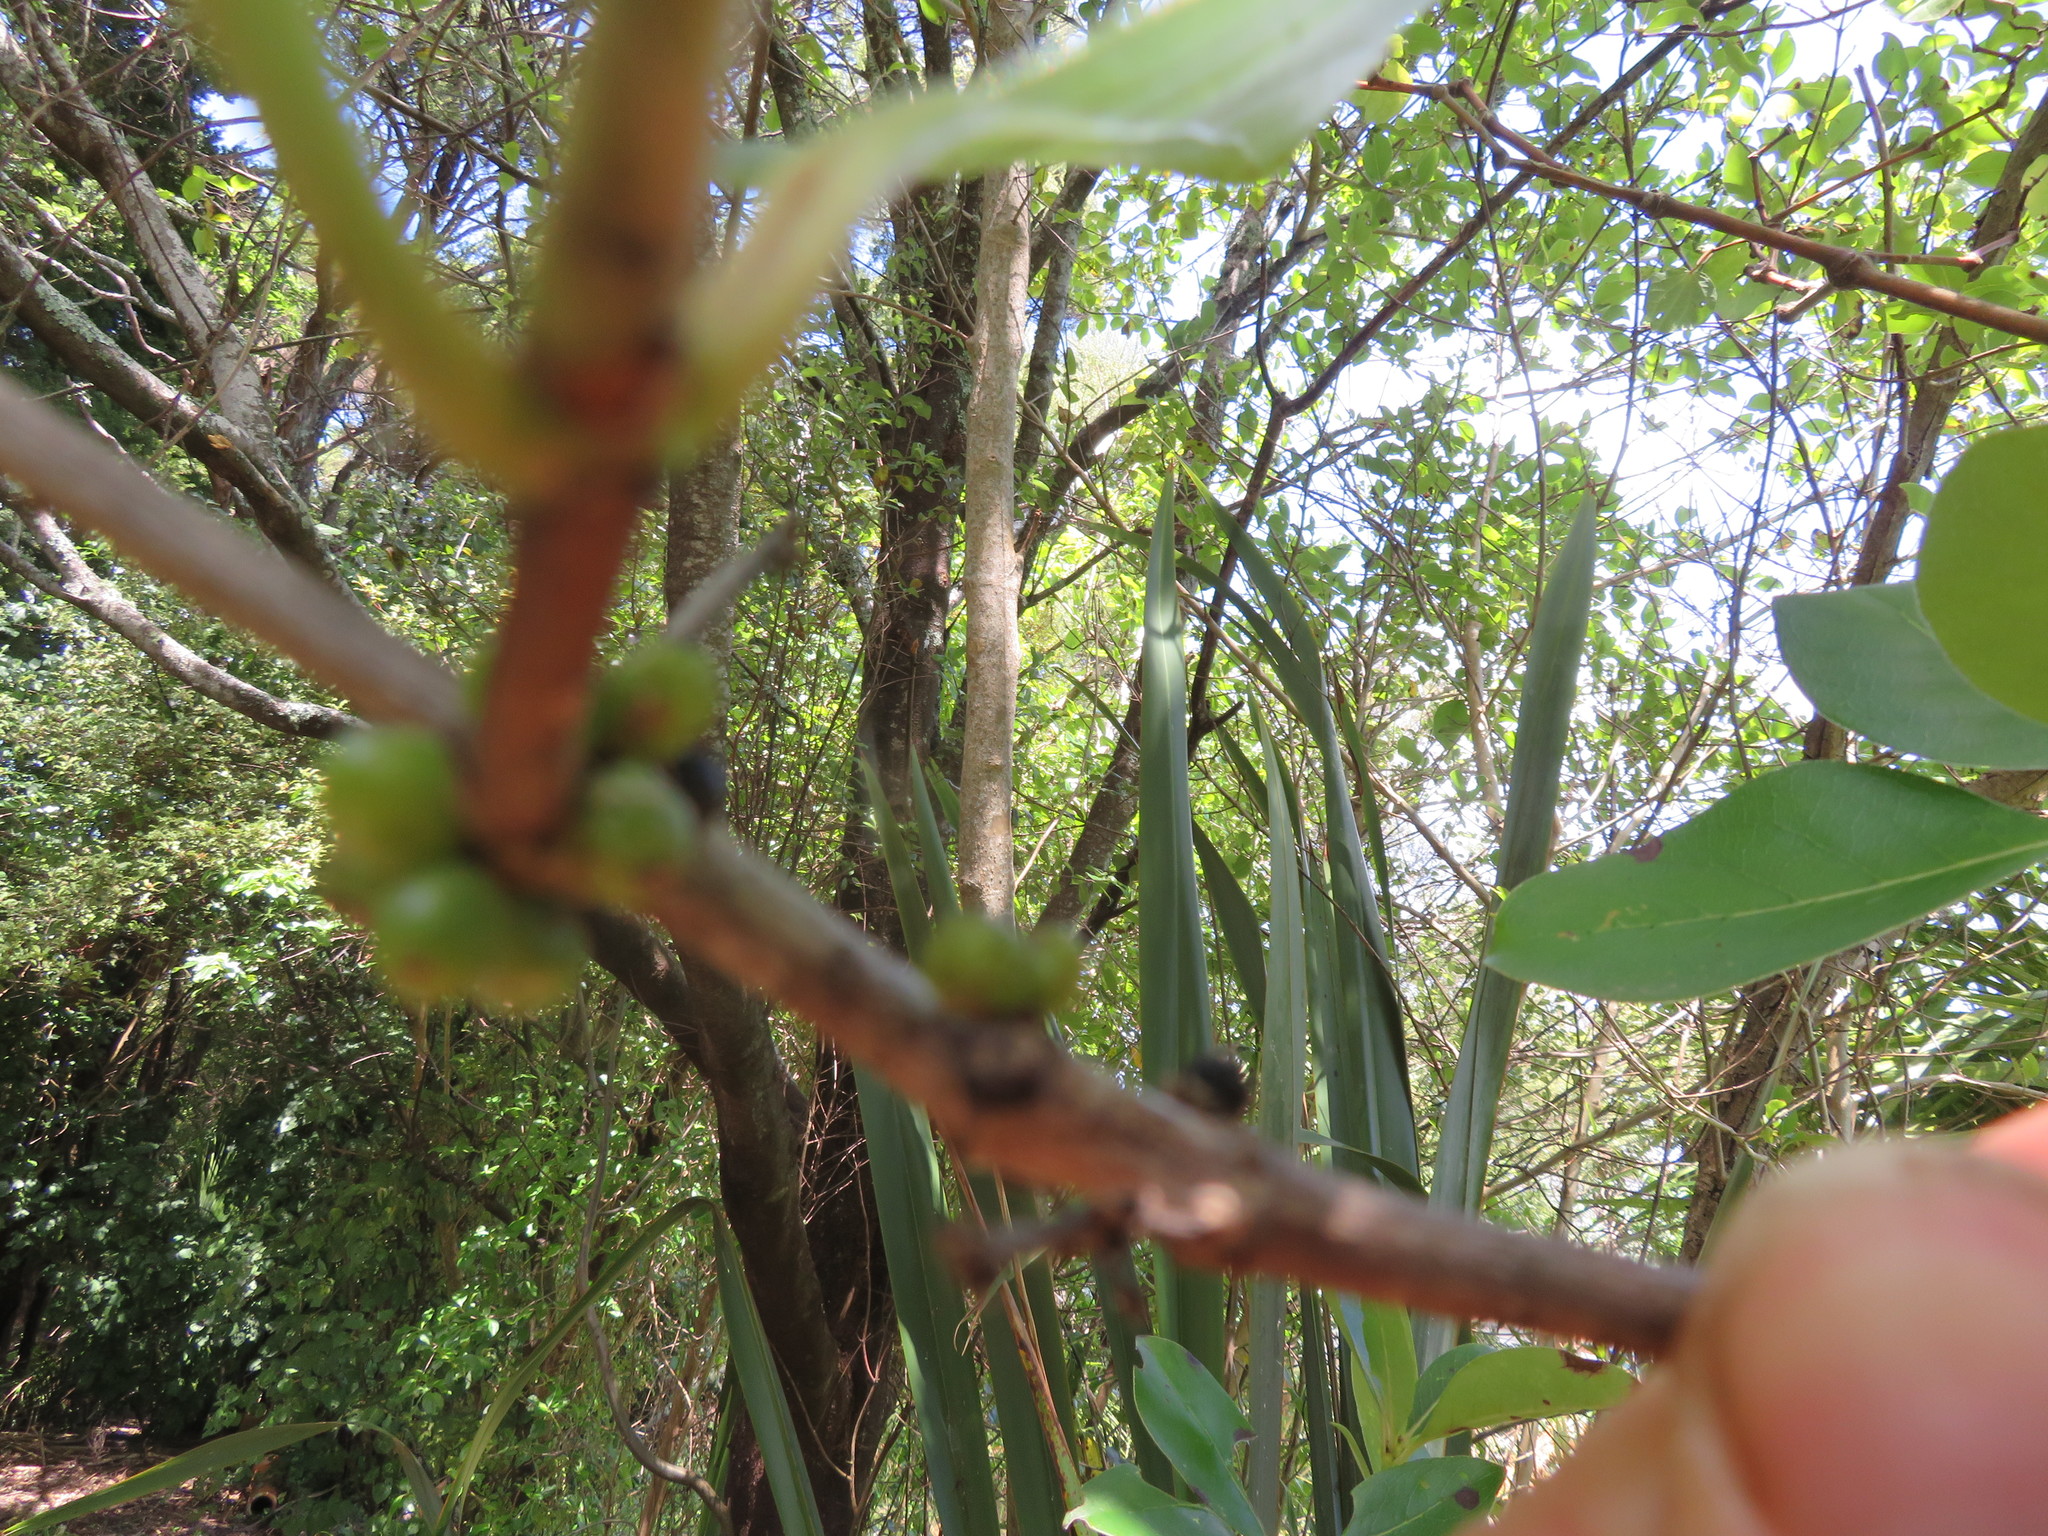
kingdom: Plantae
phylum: Tracheophyta
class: Magnoliopsida
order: Gentianales
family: Rubiaceae
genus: Coprosma
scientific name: Coprosma robusta
